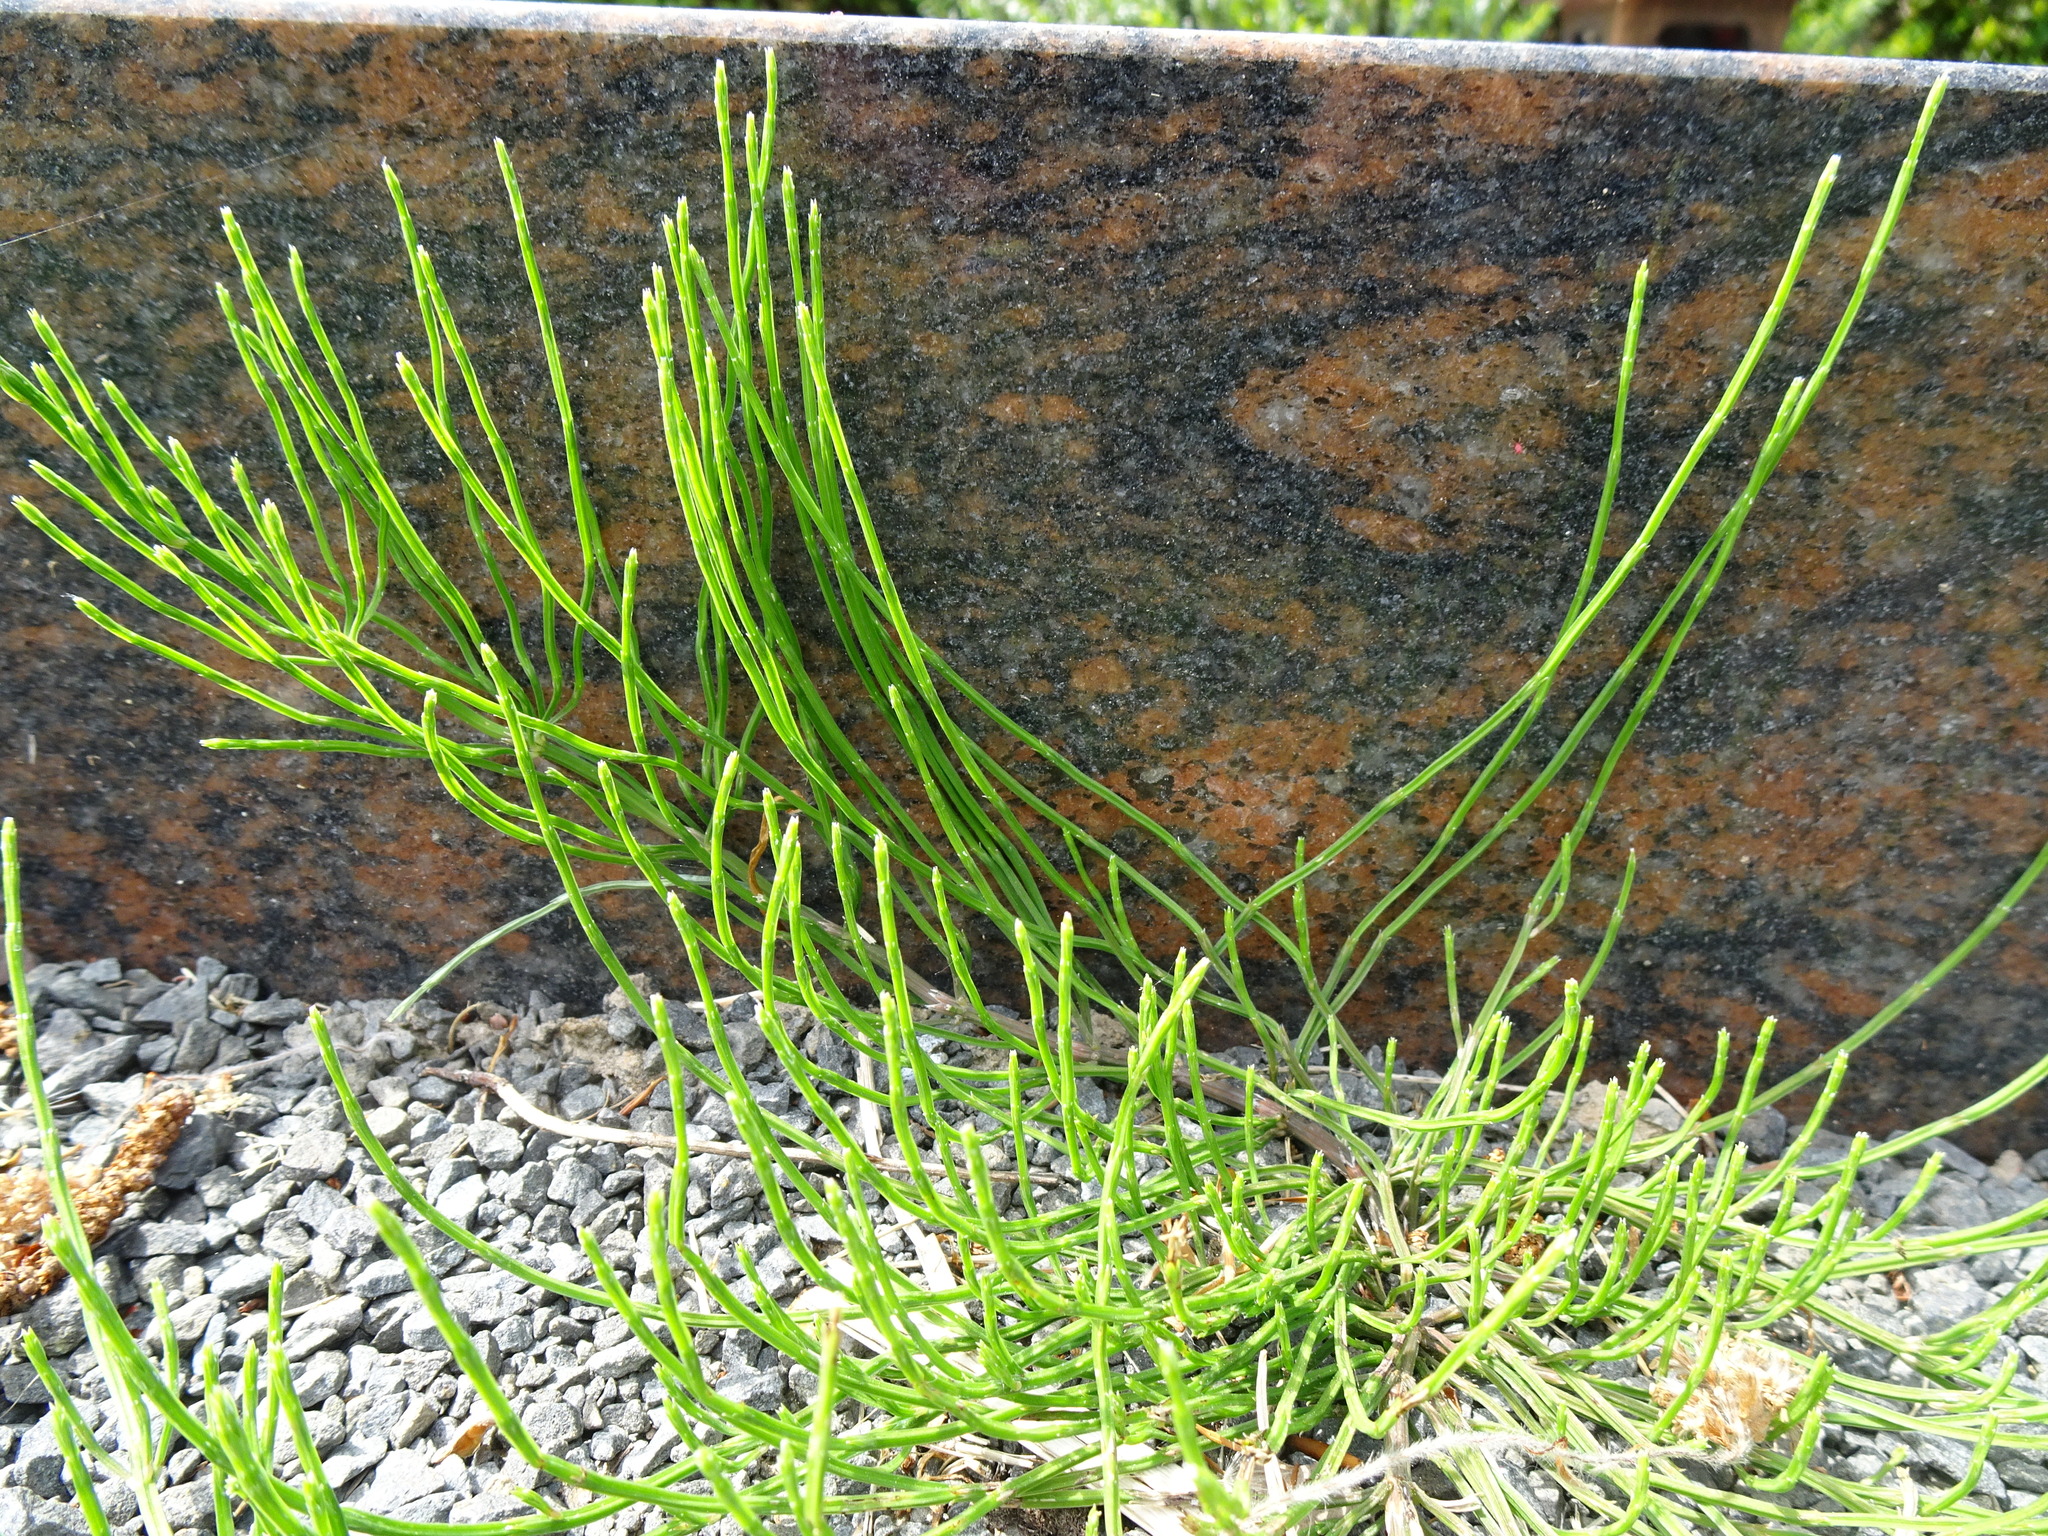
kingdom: Plantae
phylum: Tracheophyta
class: Polypodiopsida
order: Equisetales
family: Equisetaceae
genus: Equisetum
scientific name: Equisetum arvense
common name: Field horsetail
